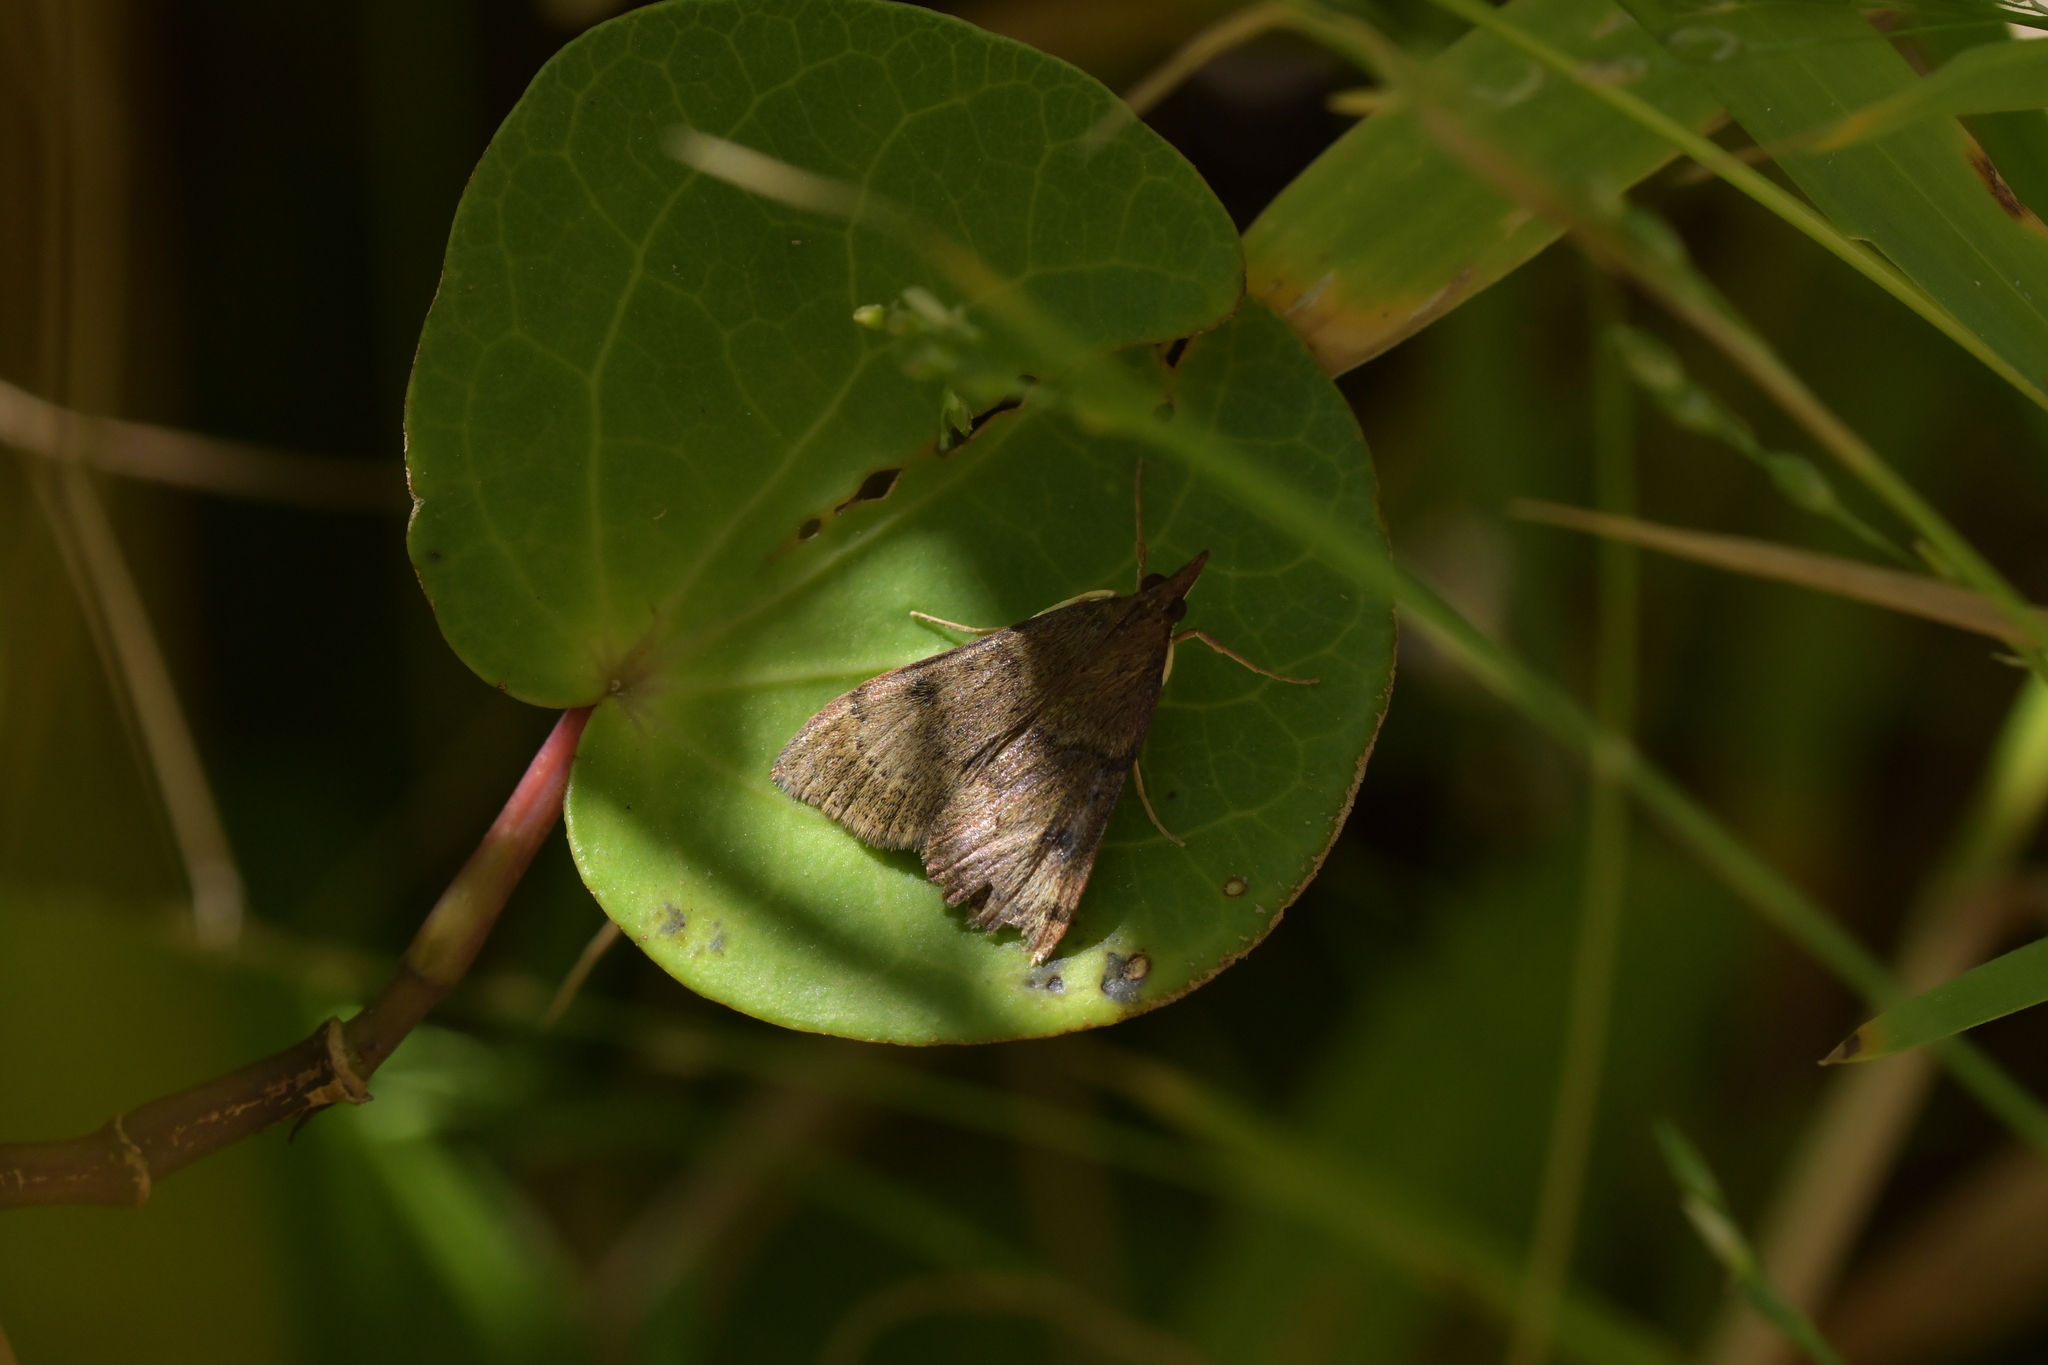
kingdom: Animalia
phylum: Arthropoda
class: Insecta
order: Lepidoptera
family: Crambidae
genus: Uresiphita
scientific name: Uresiphita
